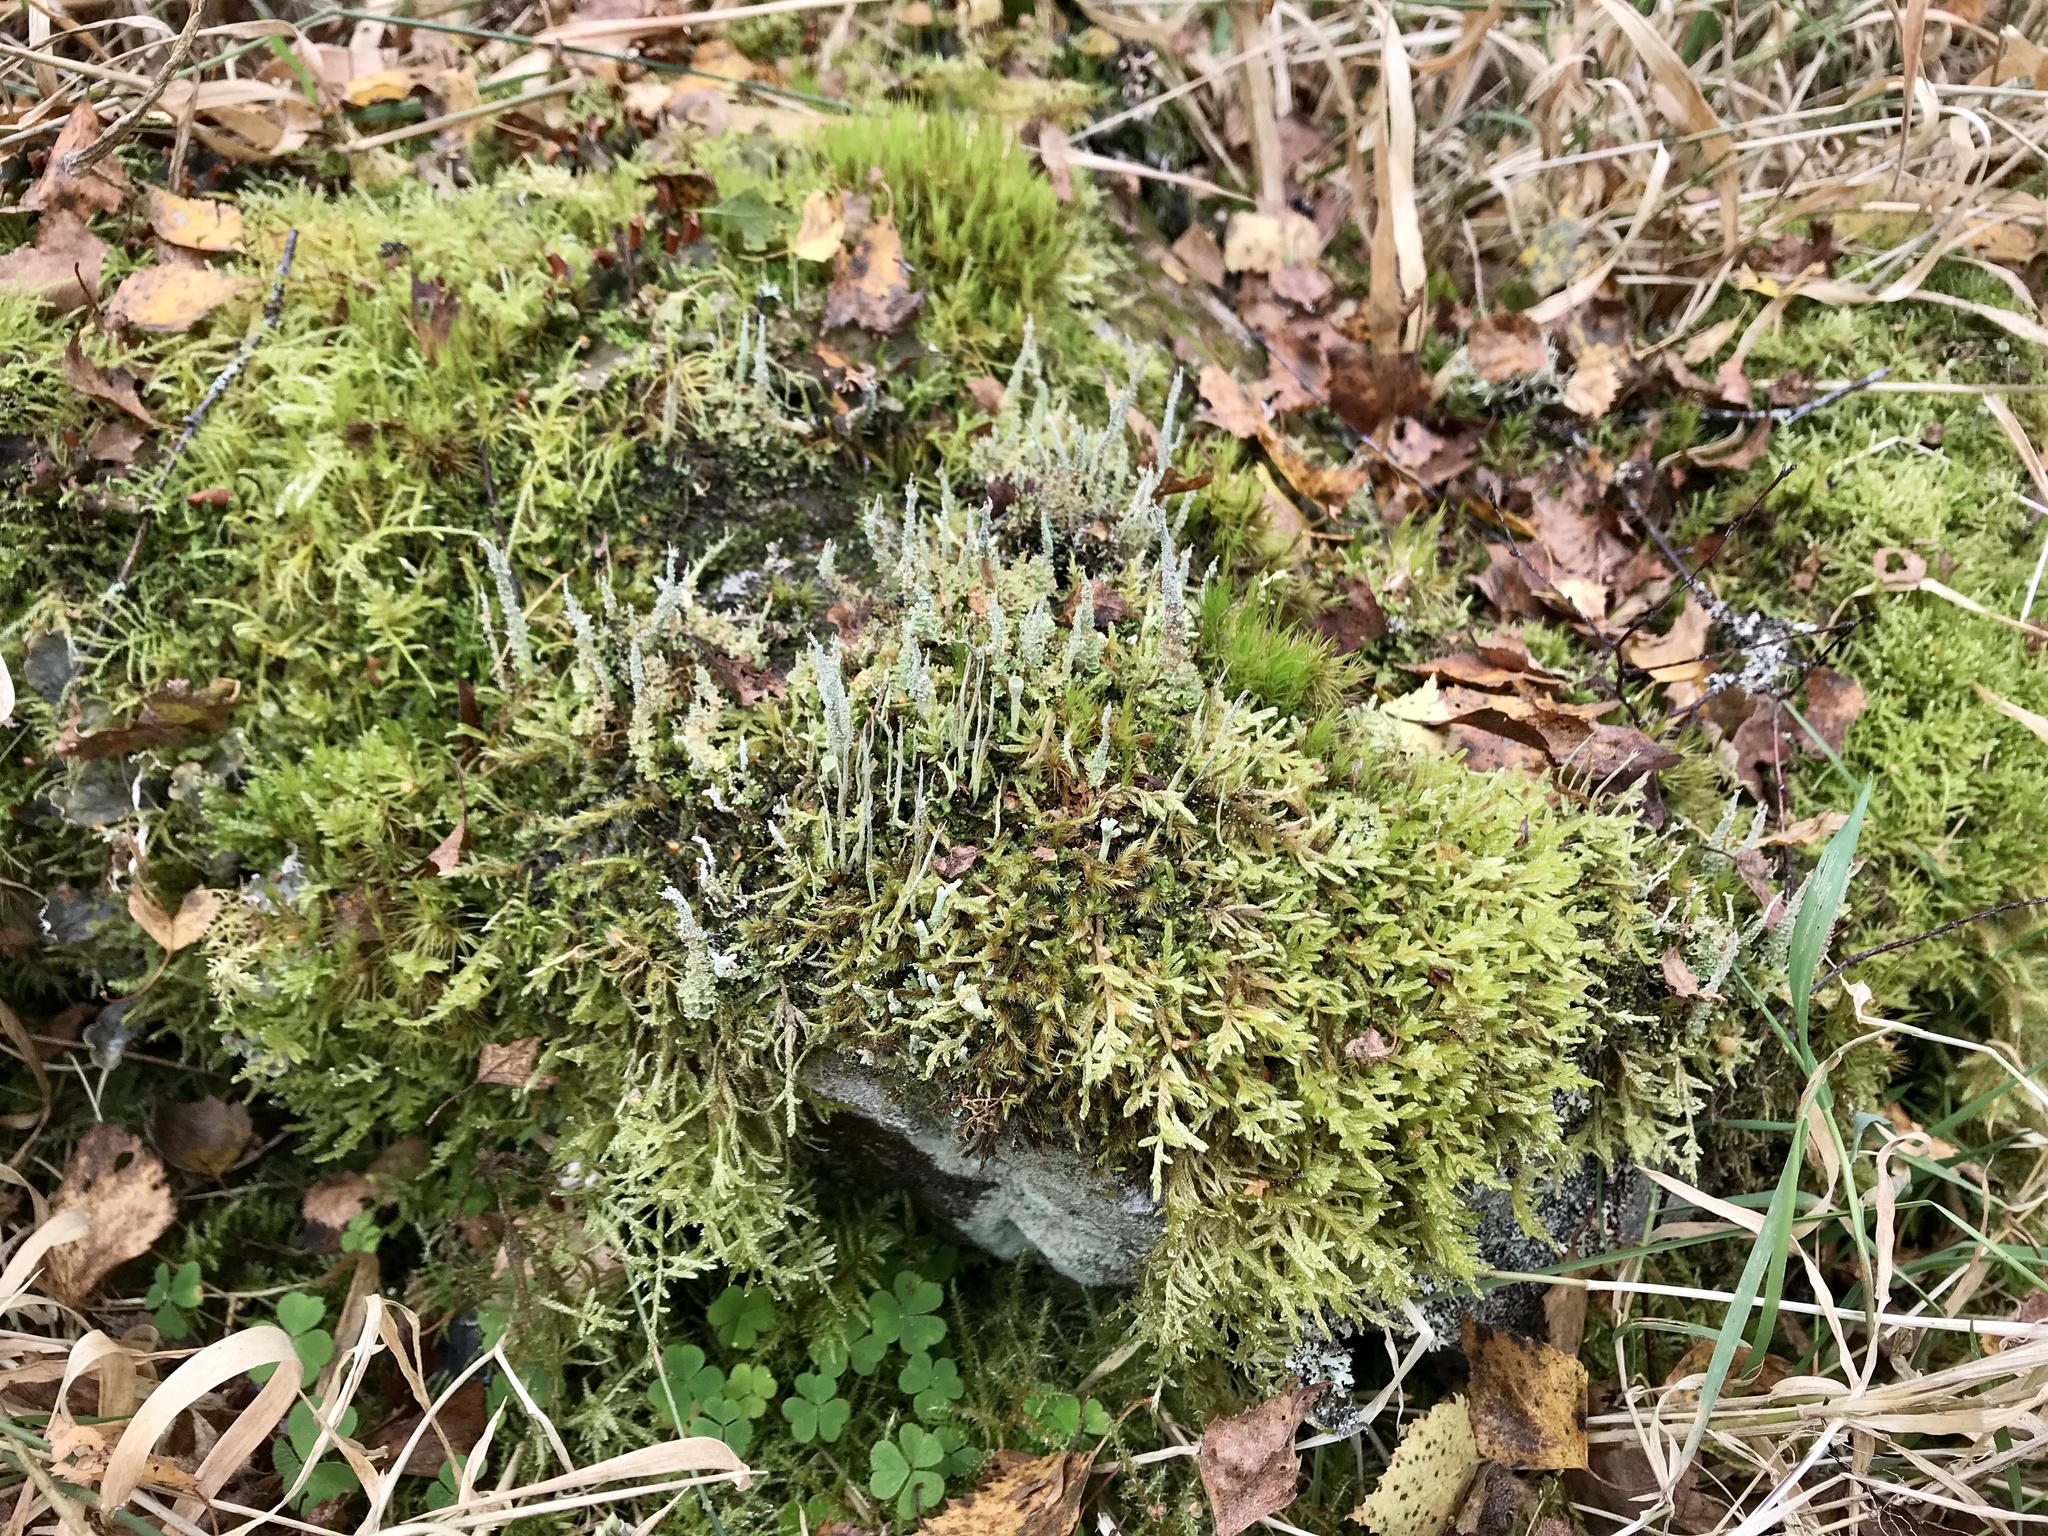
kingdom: Fungi
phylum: Ascomycota
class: Lecanoromycetes
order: Lecanorales
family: Cladoniaceae
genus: Cladonia
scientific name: Cladonia squamosa
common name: Dragon horn
